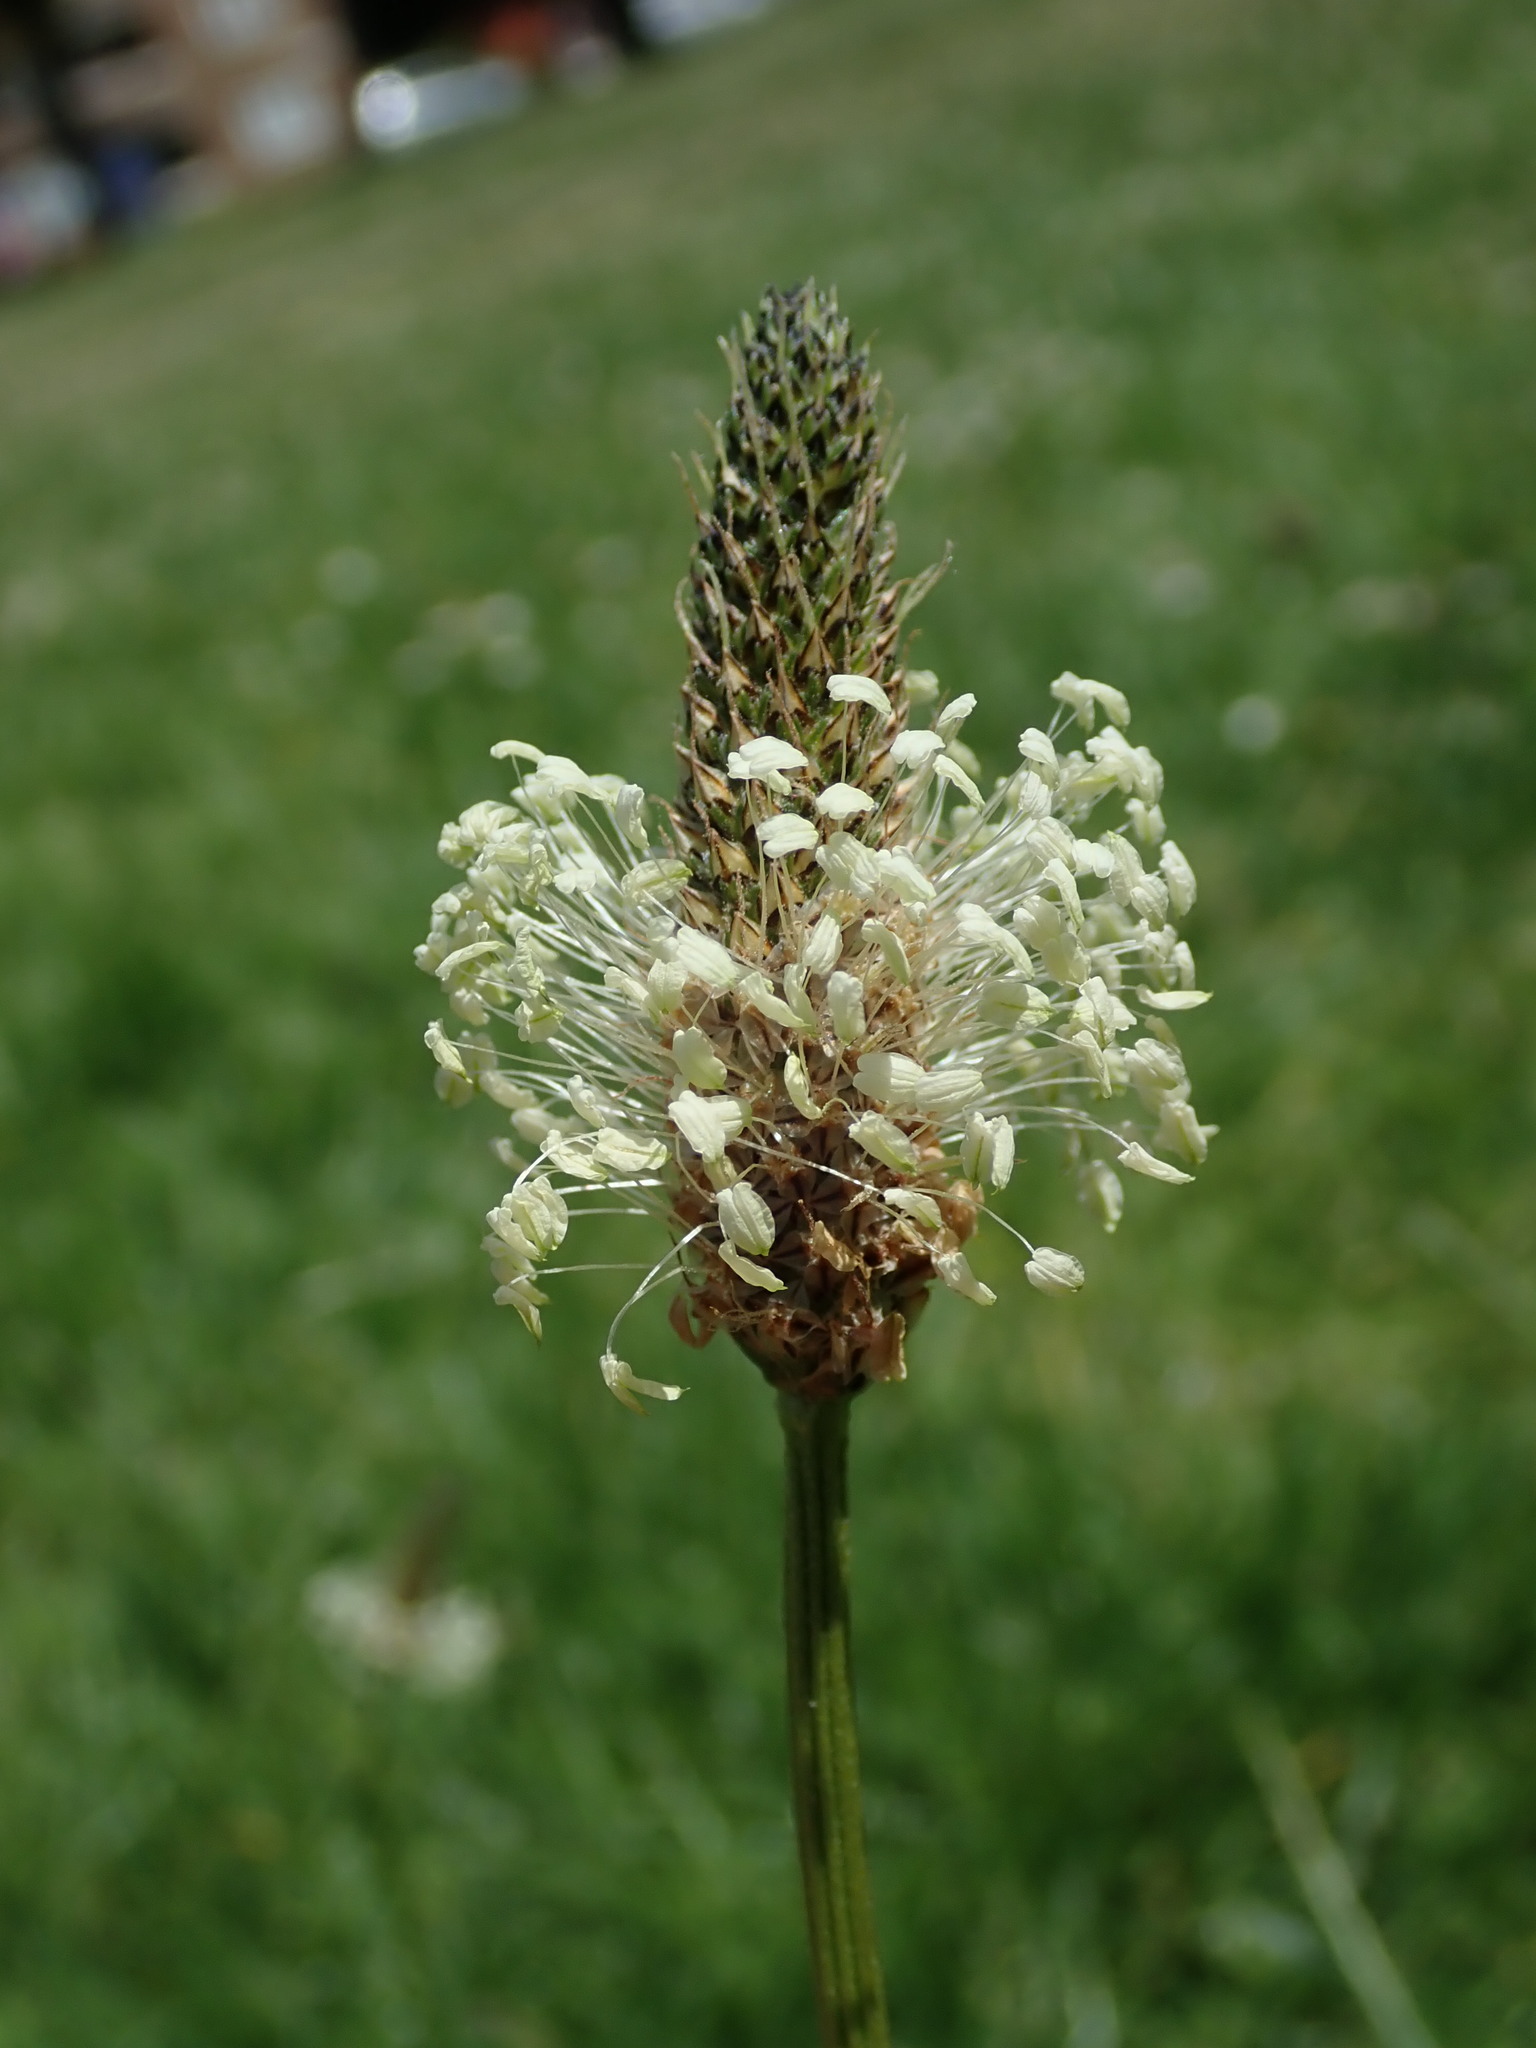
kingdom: Plantae
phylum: Tracheophyta
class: Magnoliopsida
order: Lamiales
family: Plantaginaceae
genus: Plantago
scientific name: Plantago lanceolata
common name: Ribwort plantain
